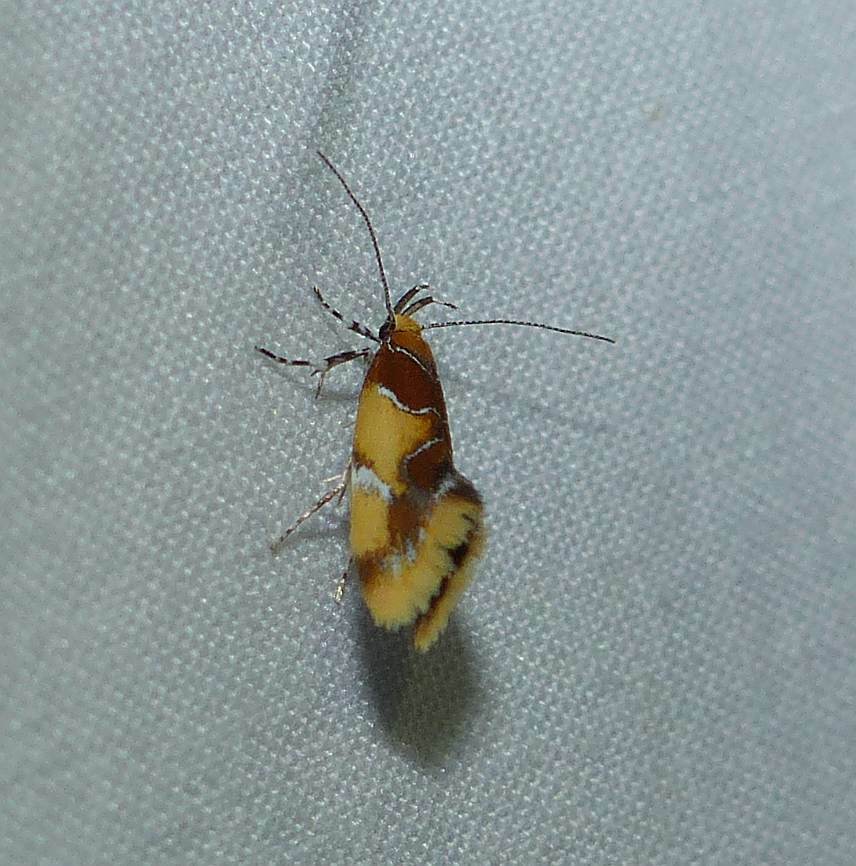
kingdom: Animalia
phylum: Arthropoda
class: Insecta
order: Lepidoptera
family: Oecophoridae
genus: Callima
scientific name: Callima argenticinctella
